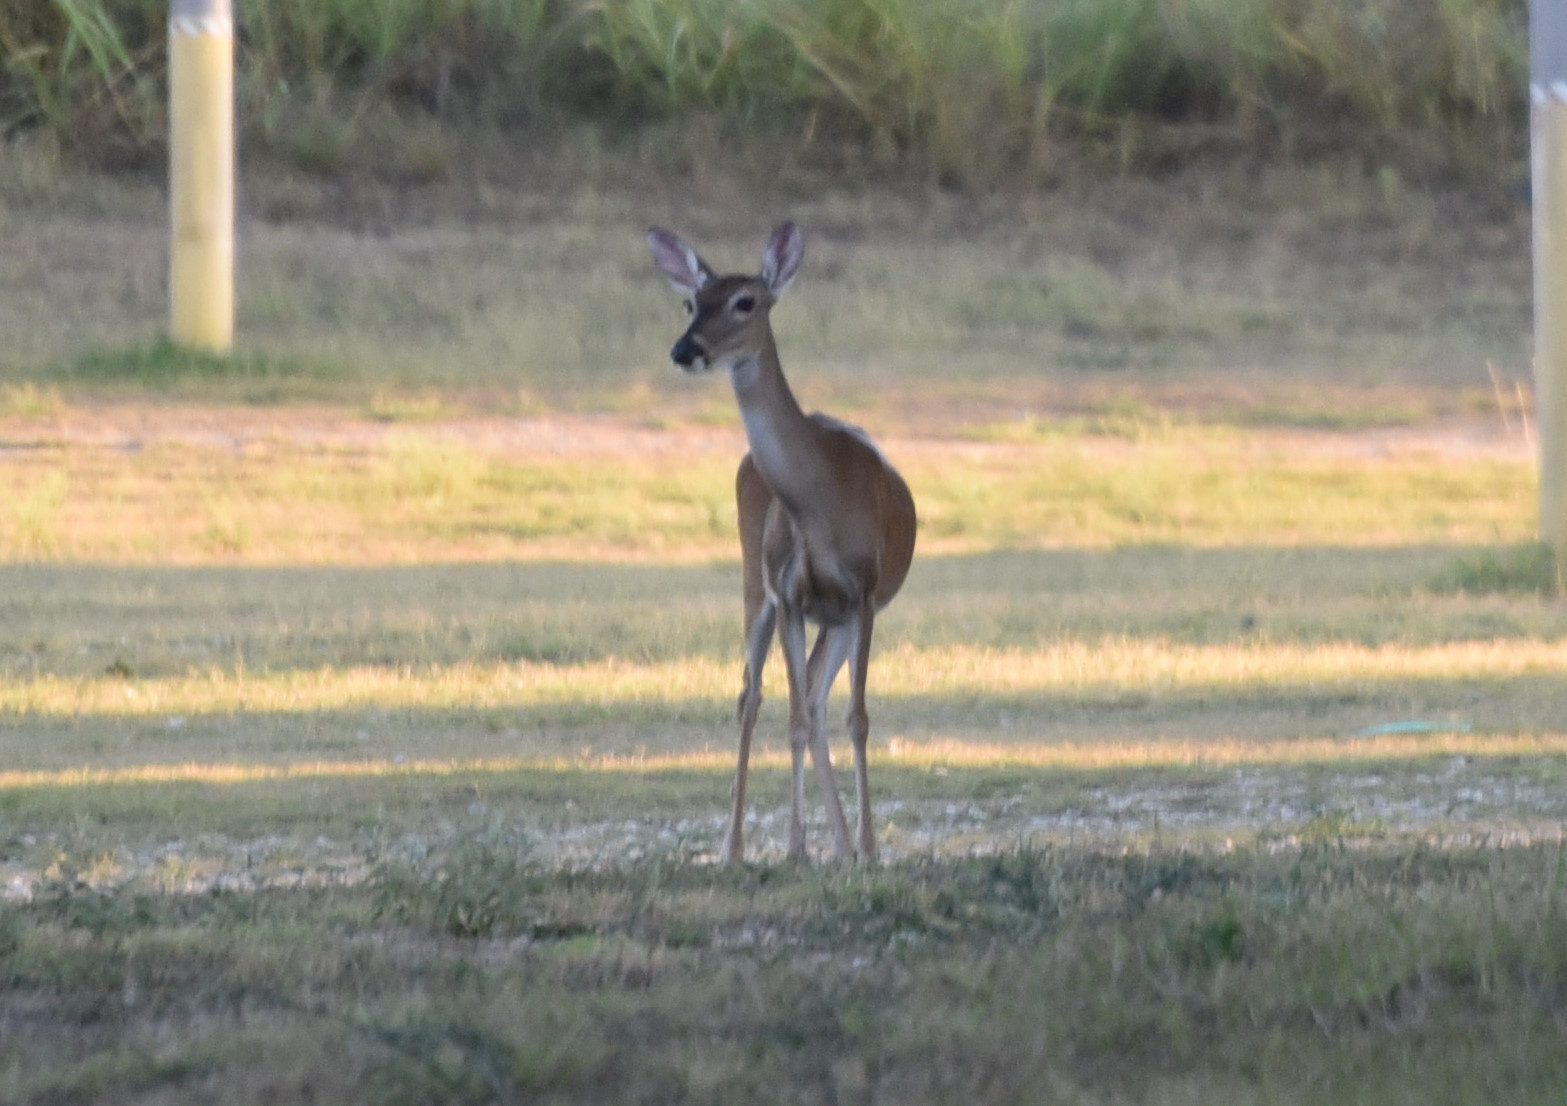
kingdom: Animalia
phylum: Chordata
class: Mammalia
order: Artiodactyla
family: Cervidae
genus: Odocoileus
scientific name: Odocoileus virginianus
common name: White-tailed deer
